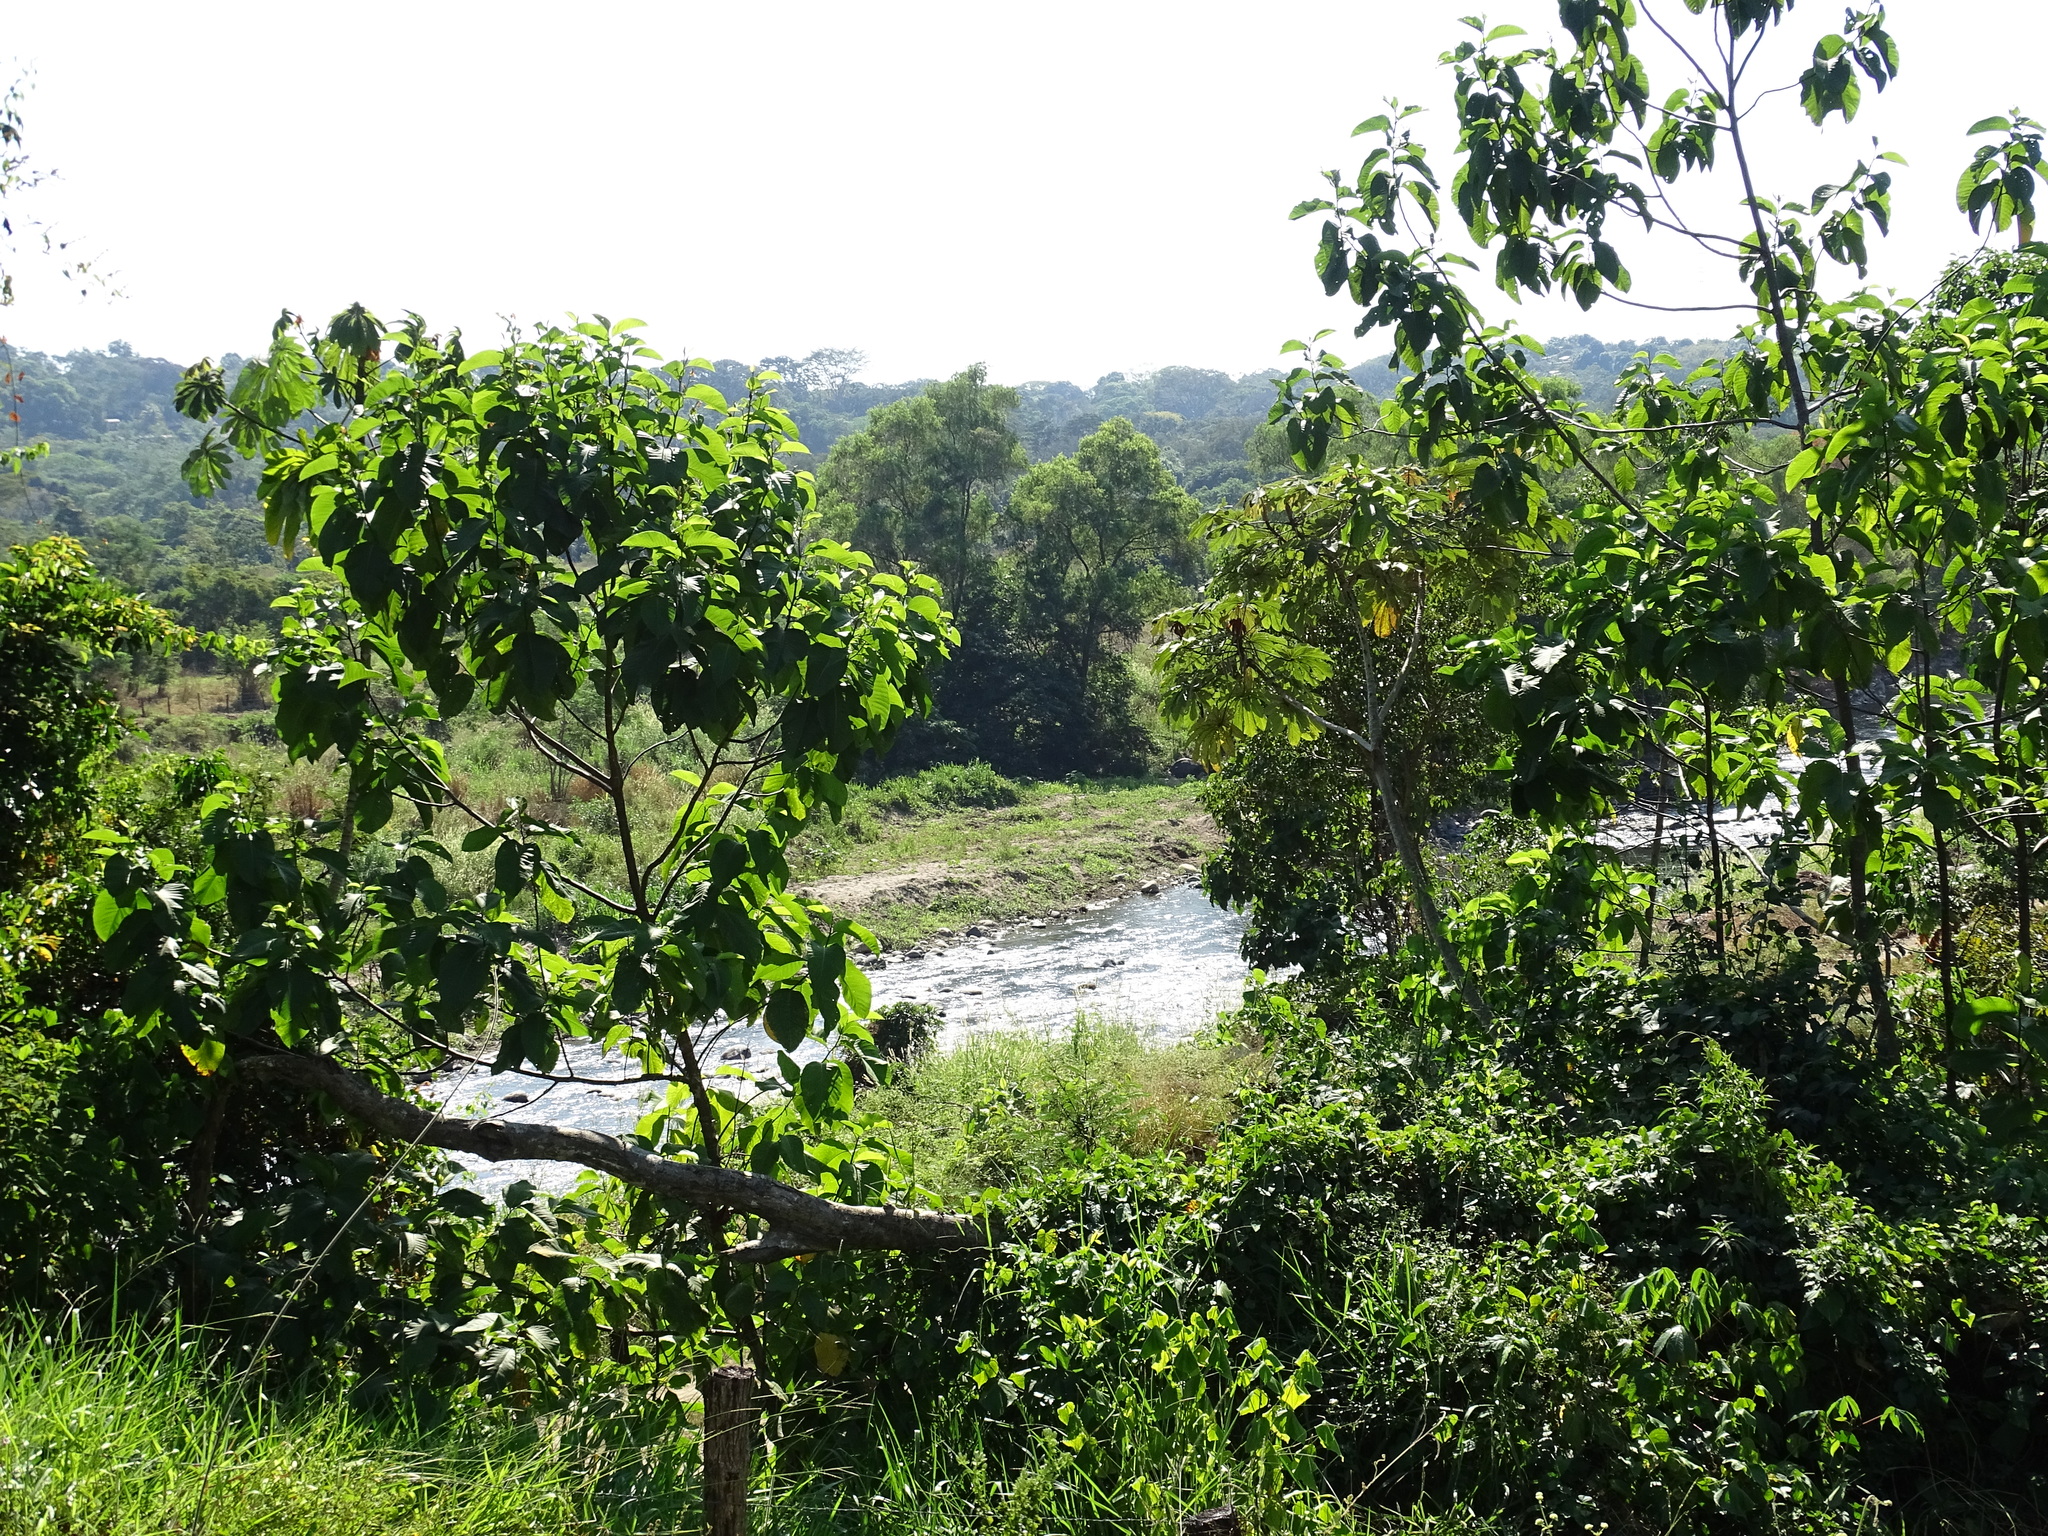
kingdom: Plantae
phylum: Tracheophyta
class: Magnoliopsida
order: Caryophyllales
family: Polygonaceae
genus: Triplaris
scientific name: Triplaris melaenodendron
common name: Long john
